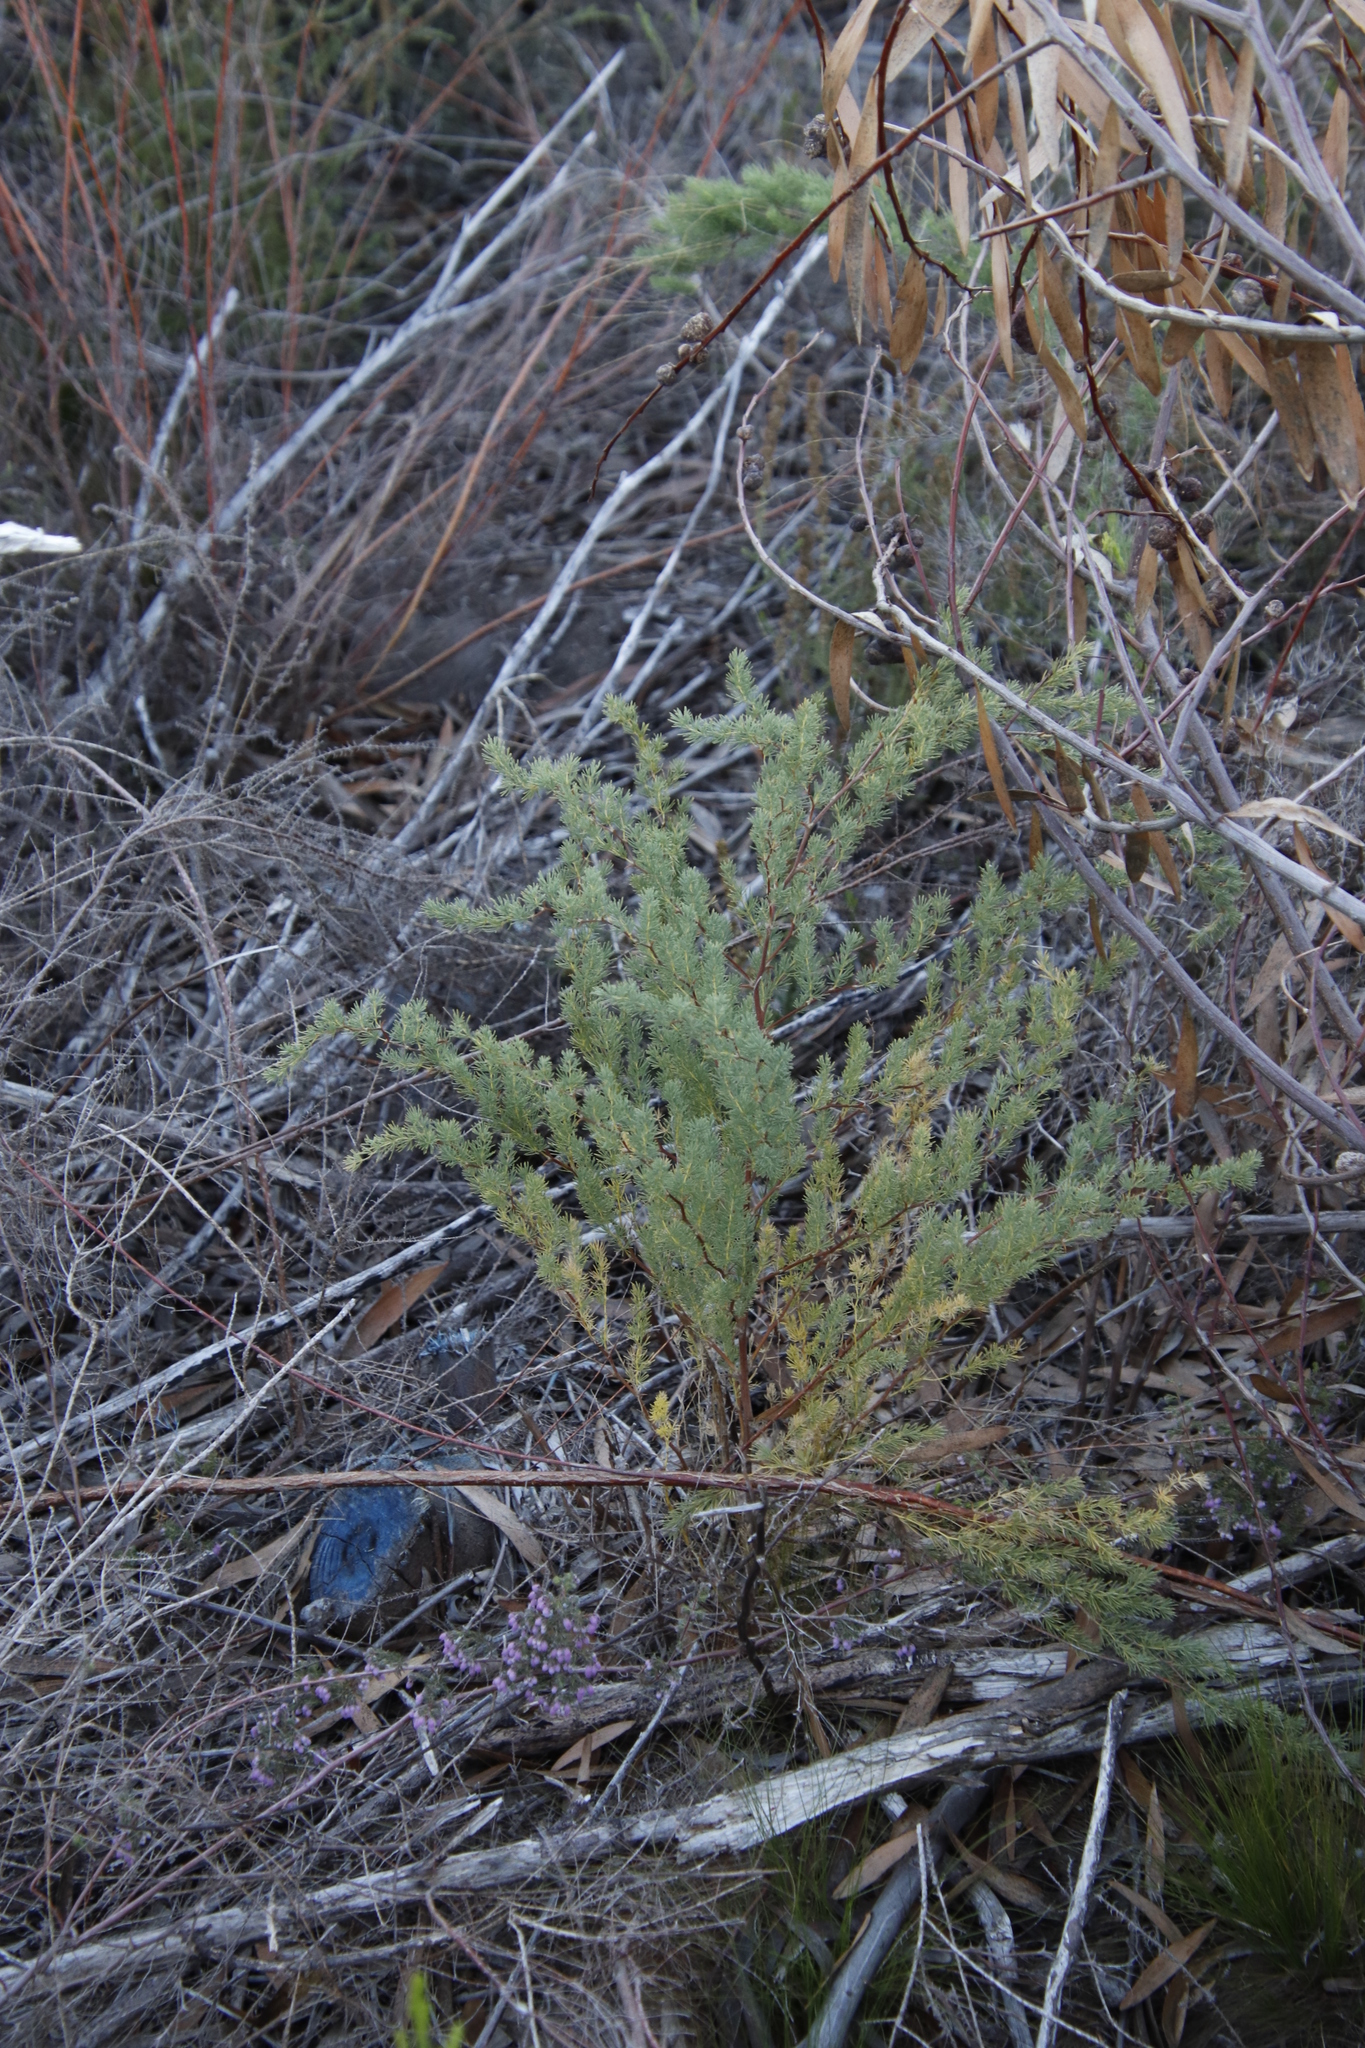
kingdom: Plantae
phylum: Tracheophyta
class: Liliopsida
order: Asparagales
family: Asparagaceae
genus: Asparagus
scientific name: Asparagus rubicundus
